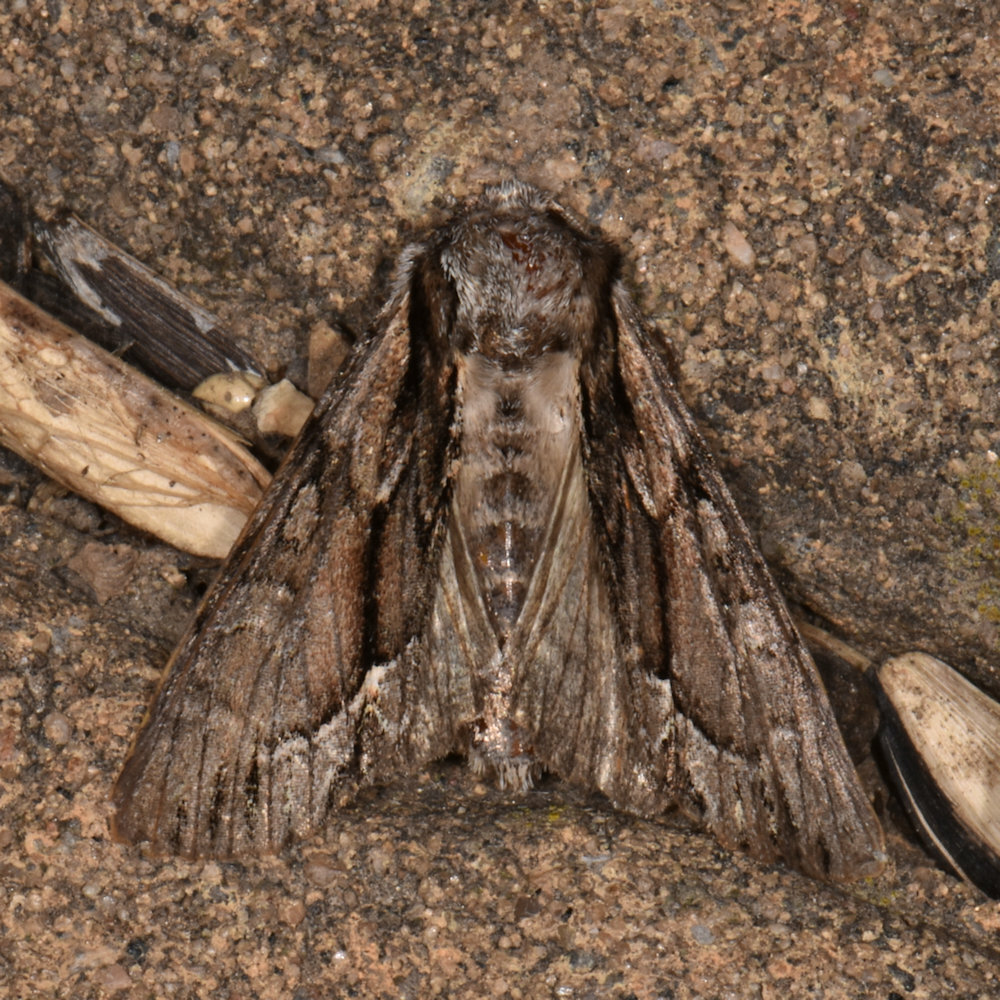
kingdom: Animalia
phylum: Arthropoda
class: Insecta
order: Lepidoptera
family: Noctuidae
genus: Hyppa
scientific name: Hyppa xylinoides
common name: Common hyppa moth
